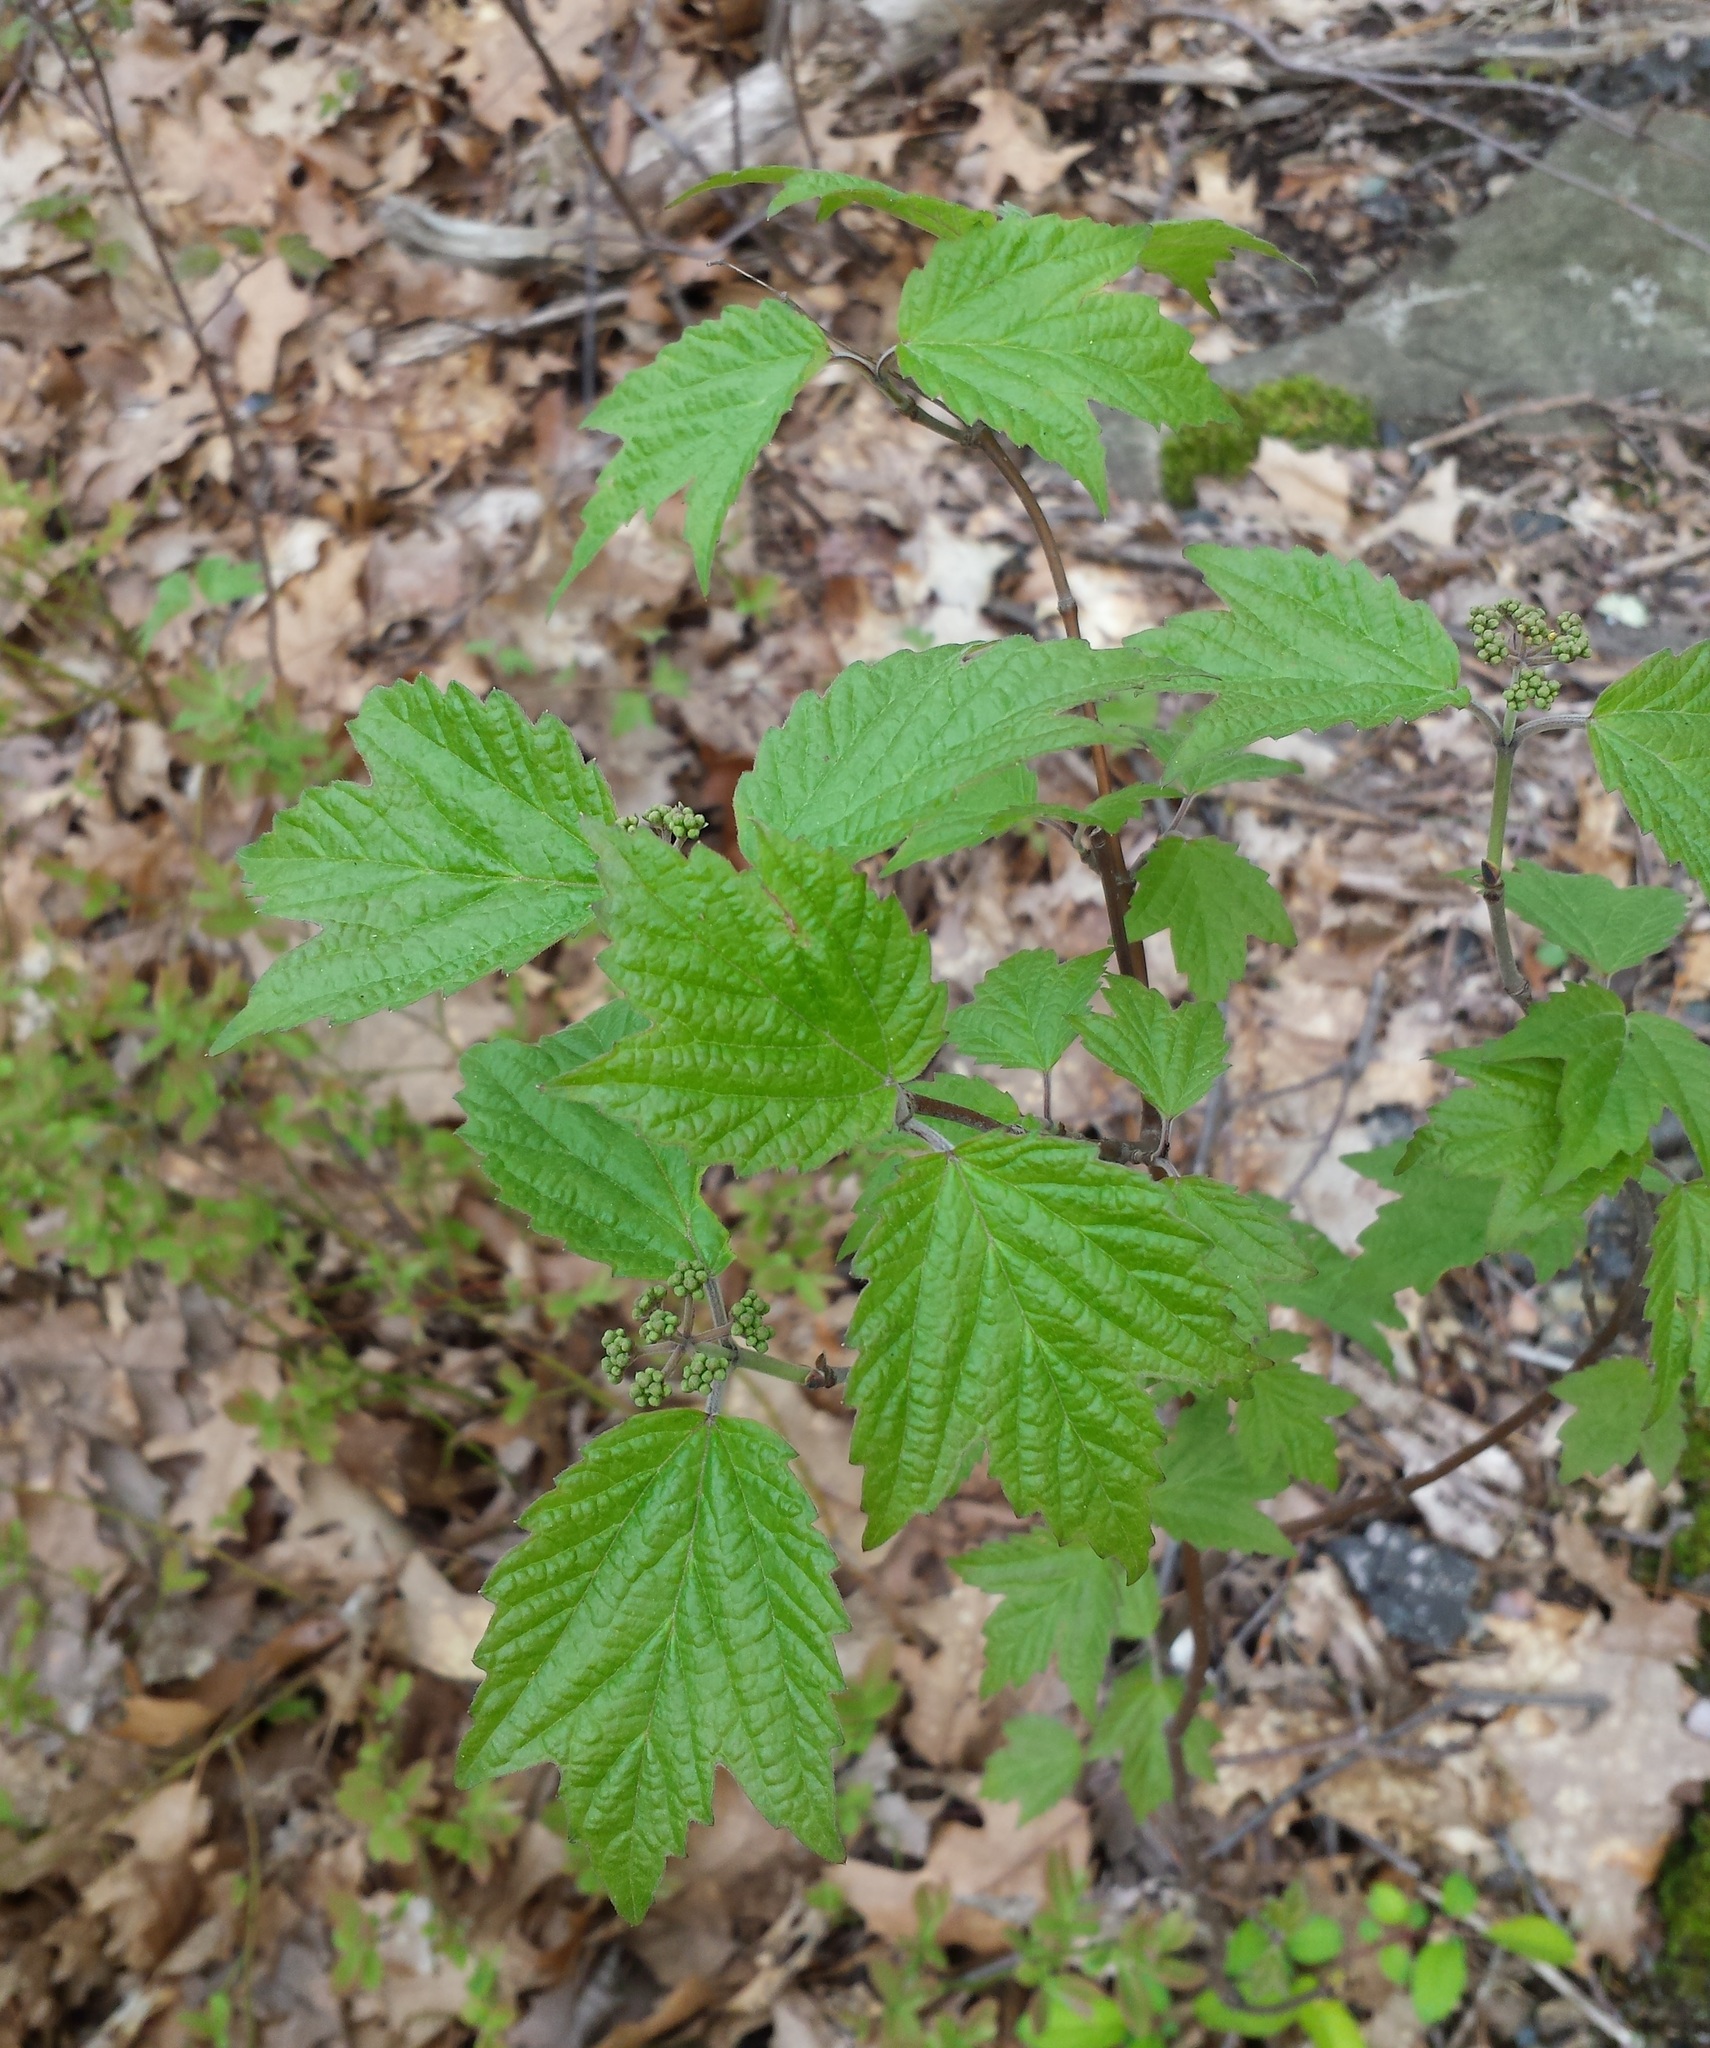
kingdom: Plantae
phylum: Tracheophyta
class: Magnoliopsida
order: Dipsacales
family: Viburnaceae
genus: Viburnum
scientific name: Viburnum acerifolium
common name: Dockmackie
